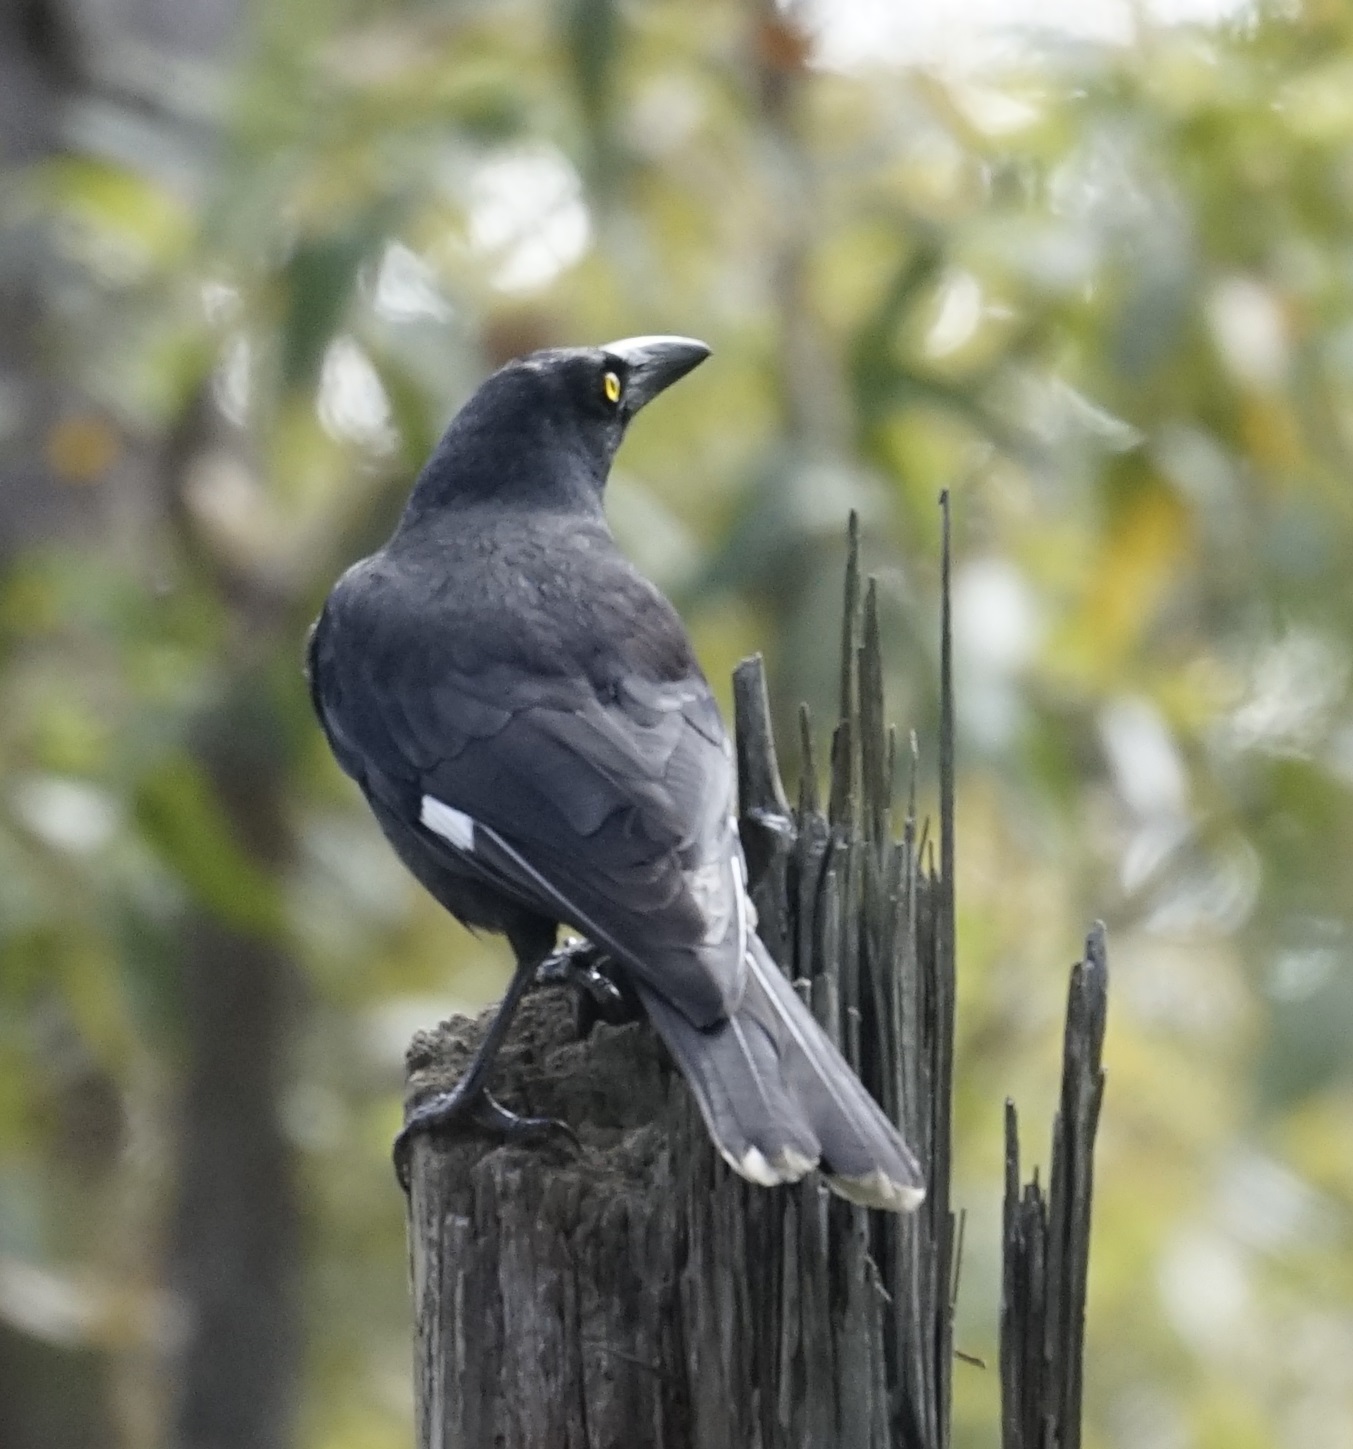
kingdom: Animalia
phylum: Chordata
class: Aves
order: Passeriformes
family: Cracticidae
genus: Strepera
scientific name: Strepera graculina
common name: Pied currawong
